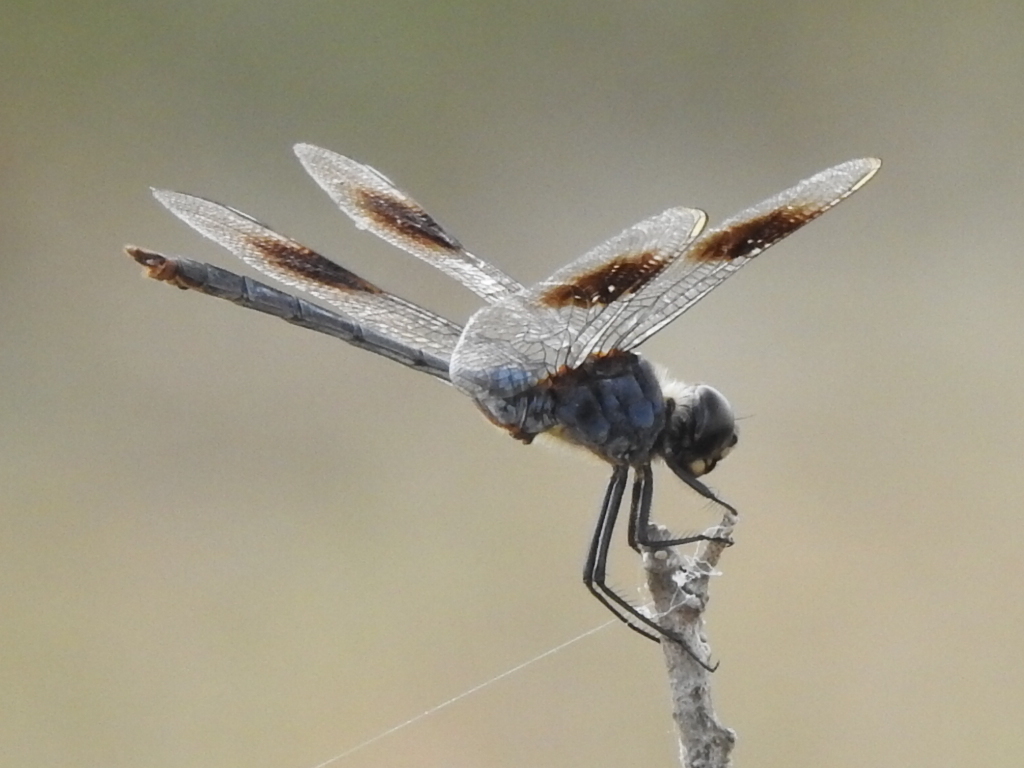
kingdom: Animalia
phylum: Arthropoda
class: Insecta
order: Odonata
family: Libellulidae
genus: Brachymesia
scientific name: Brachymesia gravida
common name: Four-spotted pennant
